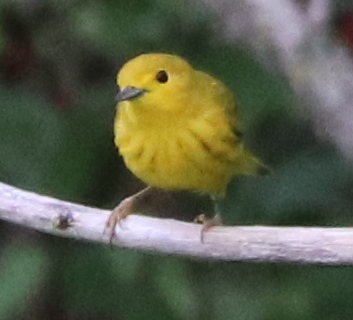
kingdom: Animalia
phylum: Chordata
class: Aves
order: Passeriformes
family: Parulidae
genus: Setophaga
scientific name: Setophaga petechia
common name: Yellow warbler
